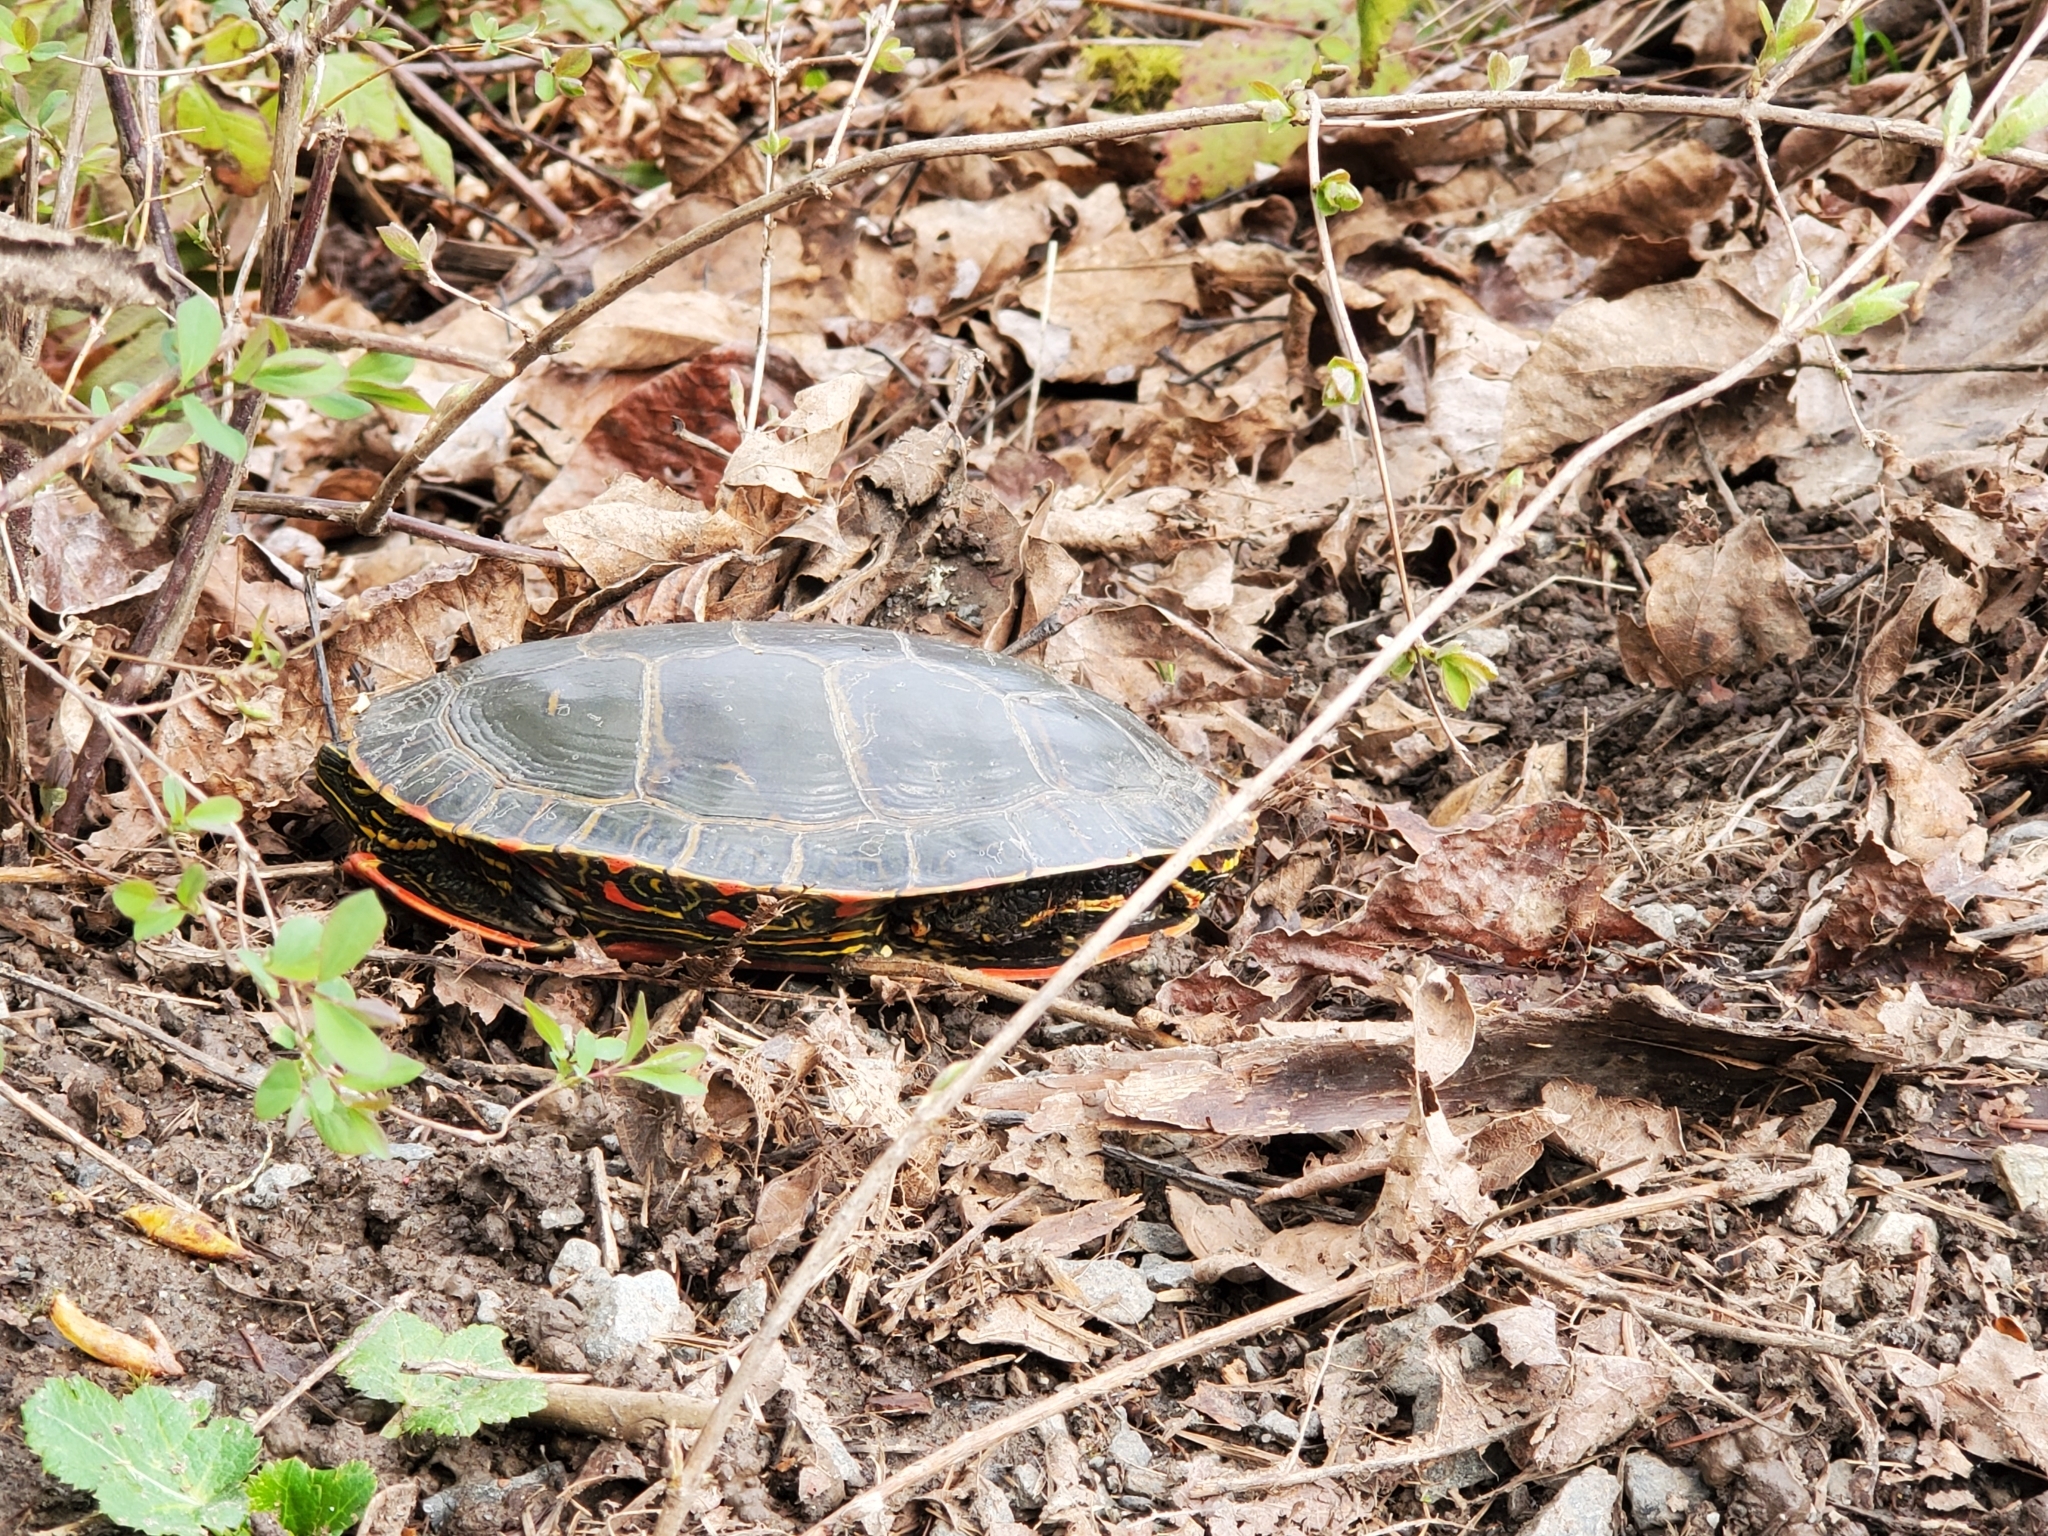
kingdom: Animalia
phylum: Chordata
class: Testudines
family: Emydidae
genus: Chrysemys
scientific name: Chrysemys picta
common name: Painted turtle
